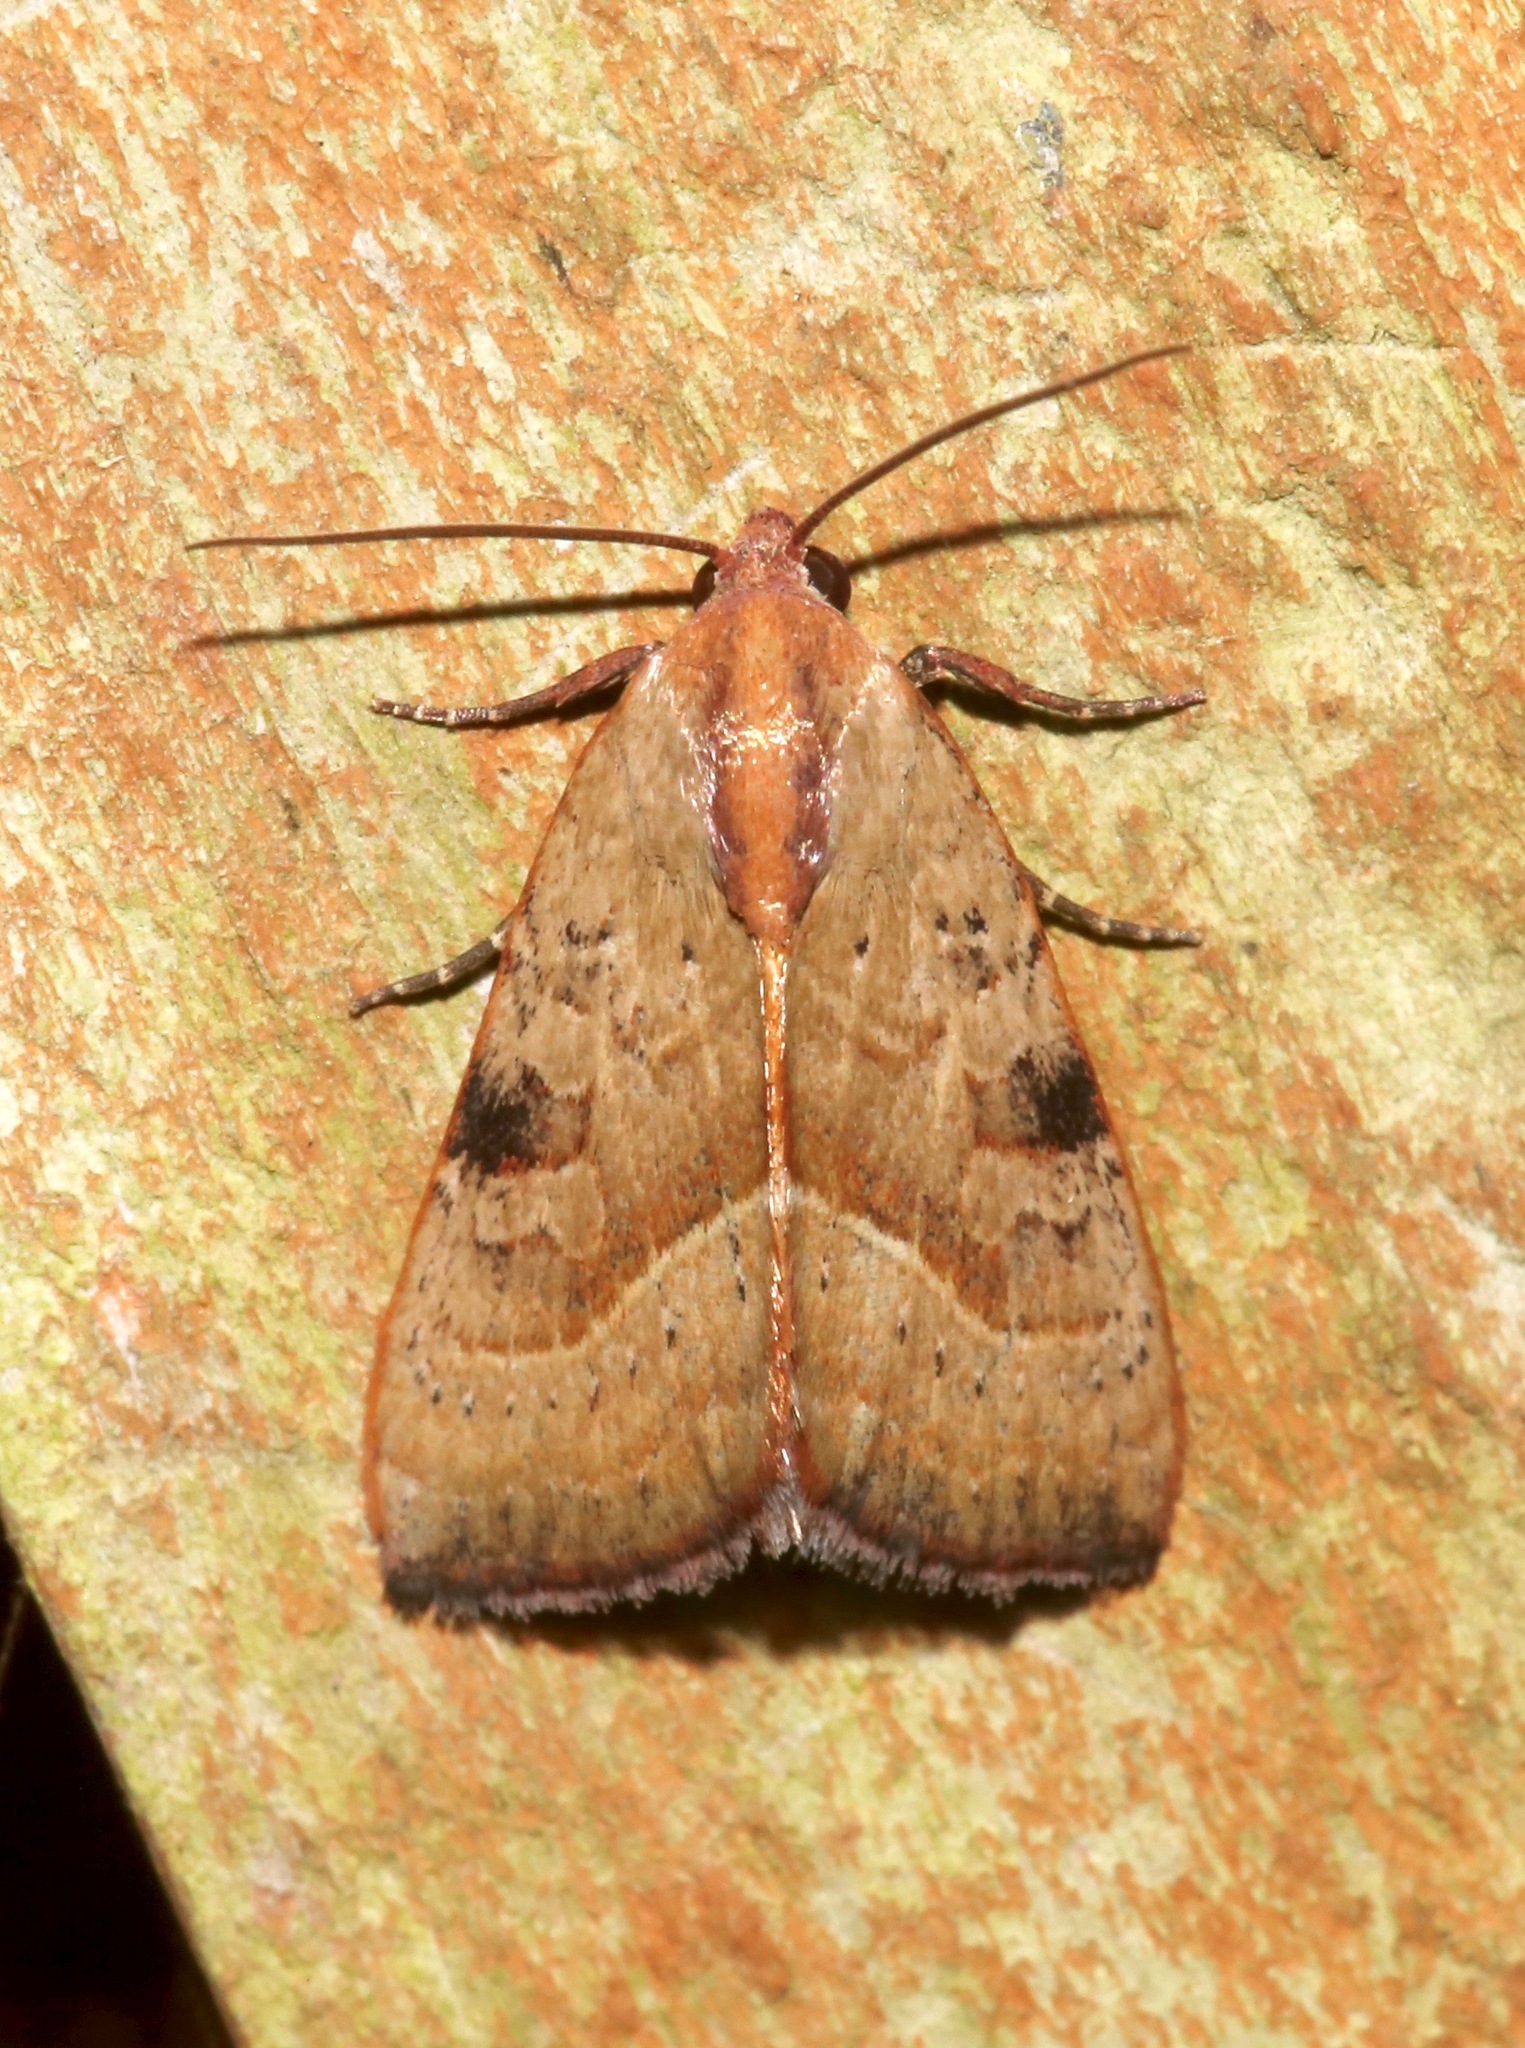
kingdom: Animalia
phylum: Arthropoda
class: Insecta
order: Lepidoptera
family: Noctuidae
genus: Galgula
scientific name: Galgula partita
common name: Wedgeling
